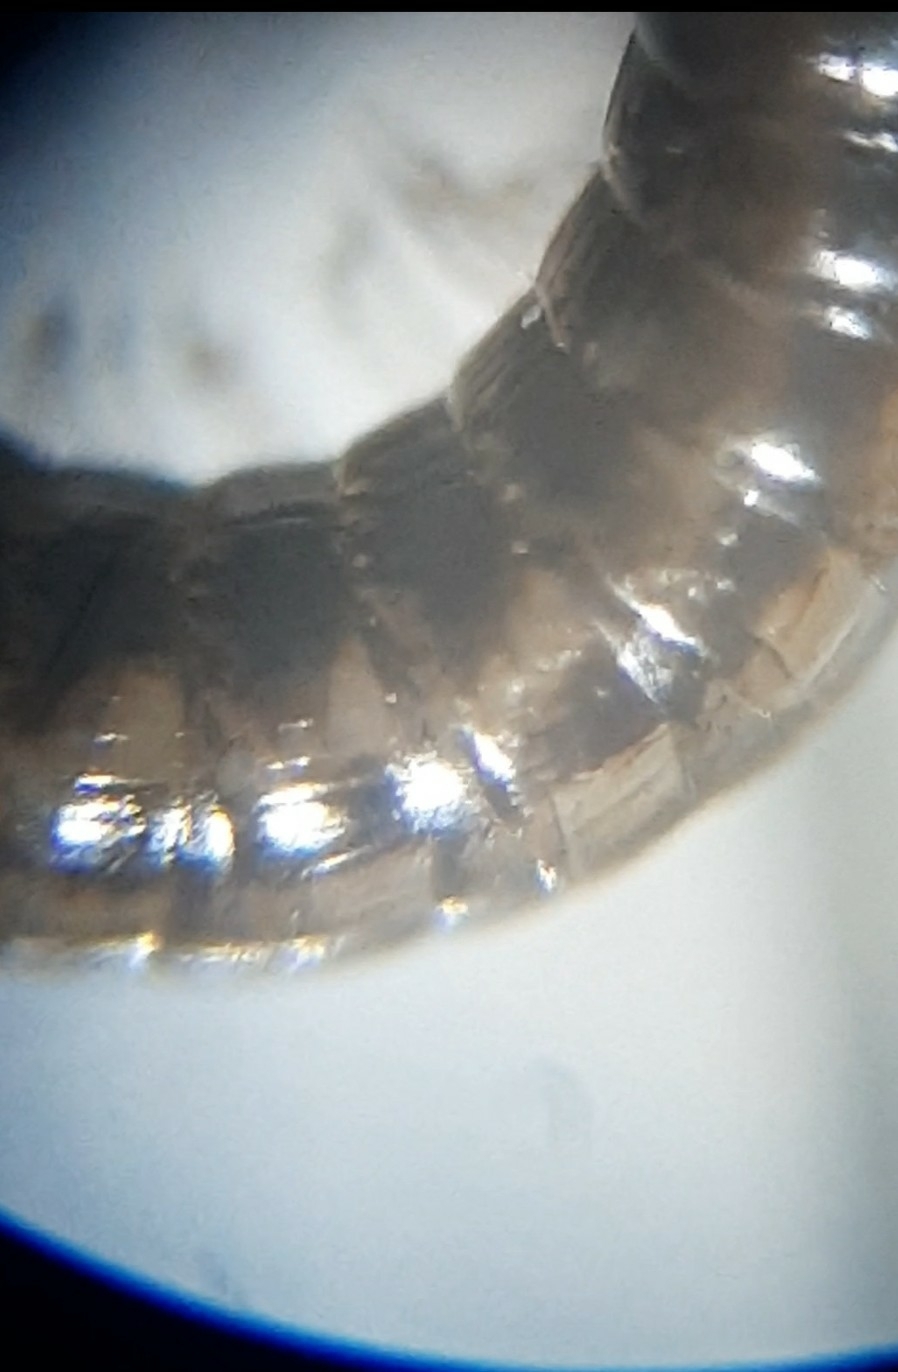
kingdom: Animalia
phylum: Arthropoda
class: Diplopoda
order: Julida
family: Julidae
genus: Brachyiulus
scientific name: Brachyiulus
